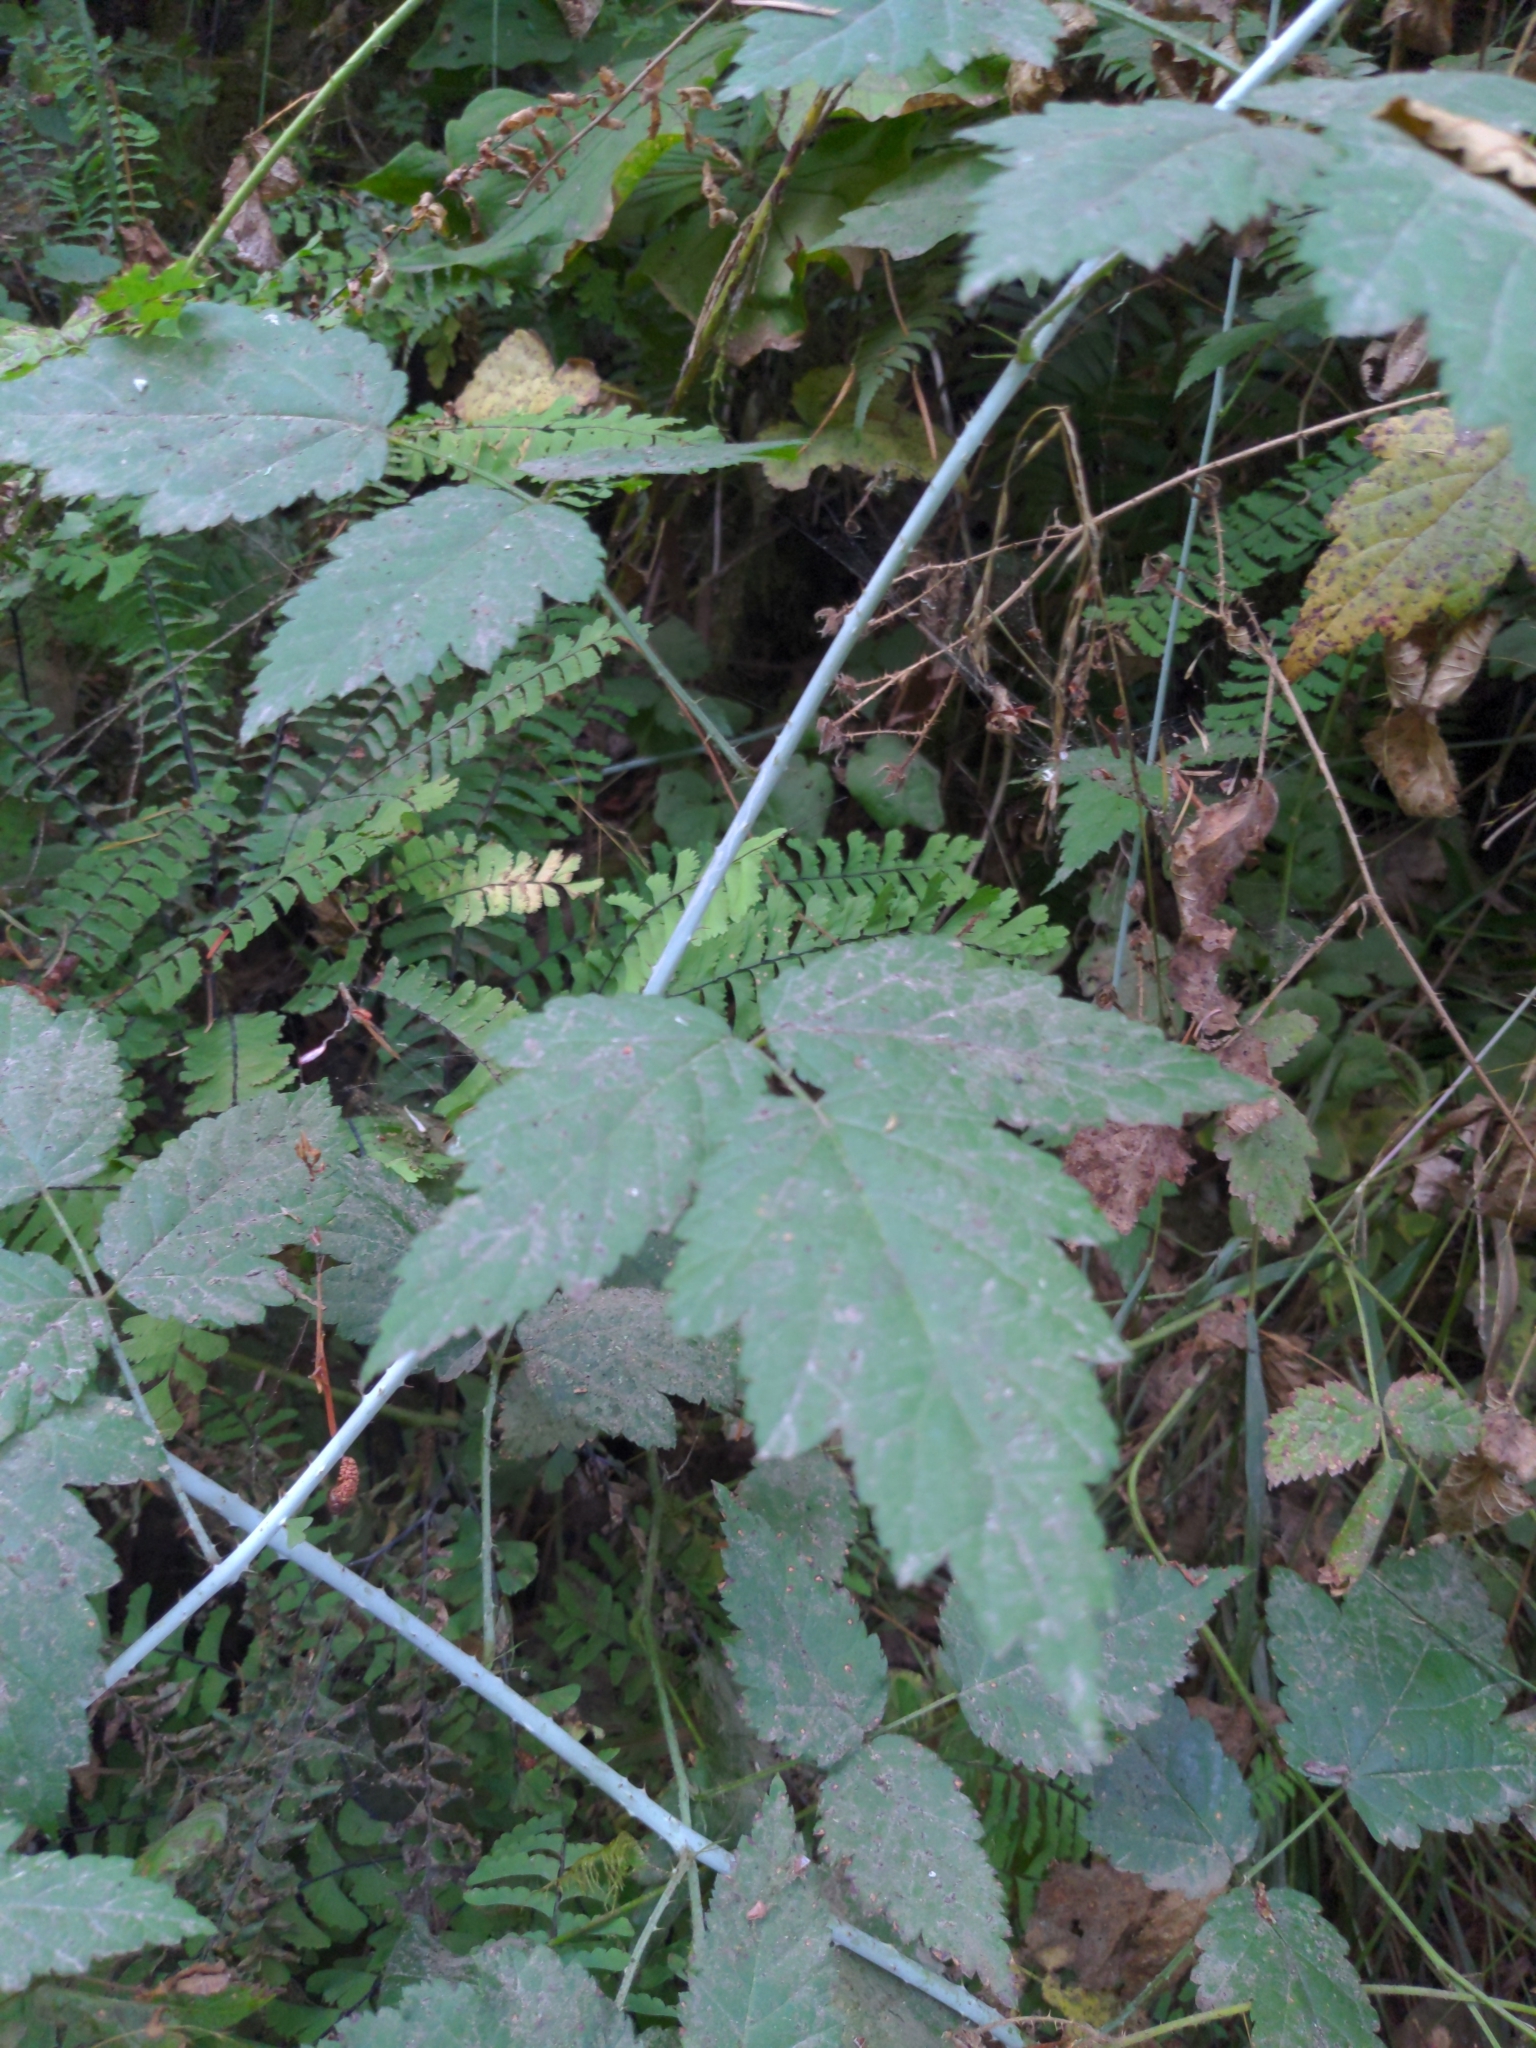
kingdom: Plantae
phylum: Tracheophyta
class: Magnoliopsida
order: Rosales
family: Rosaceae
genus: Rubus
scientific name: Rubus ursinus
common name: Pacific blackberry
